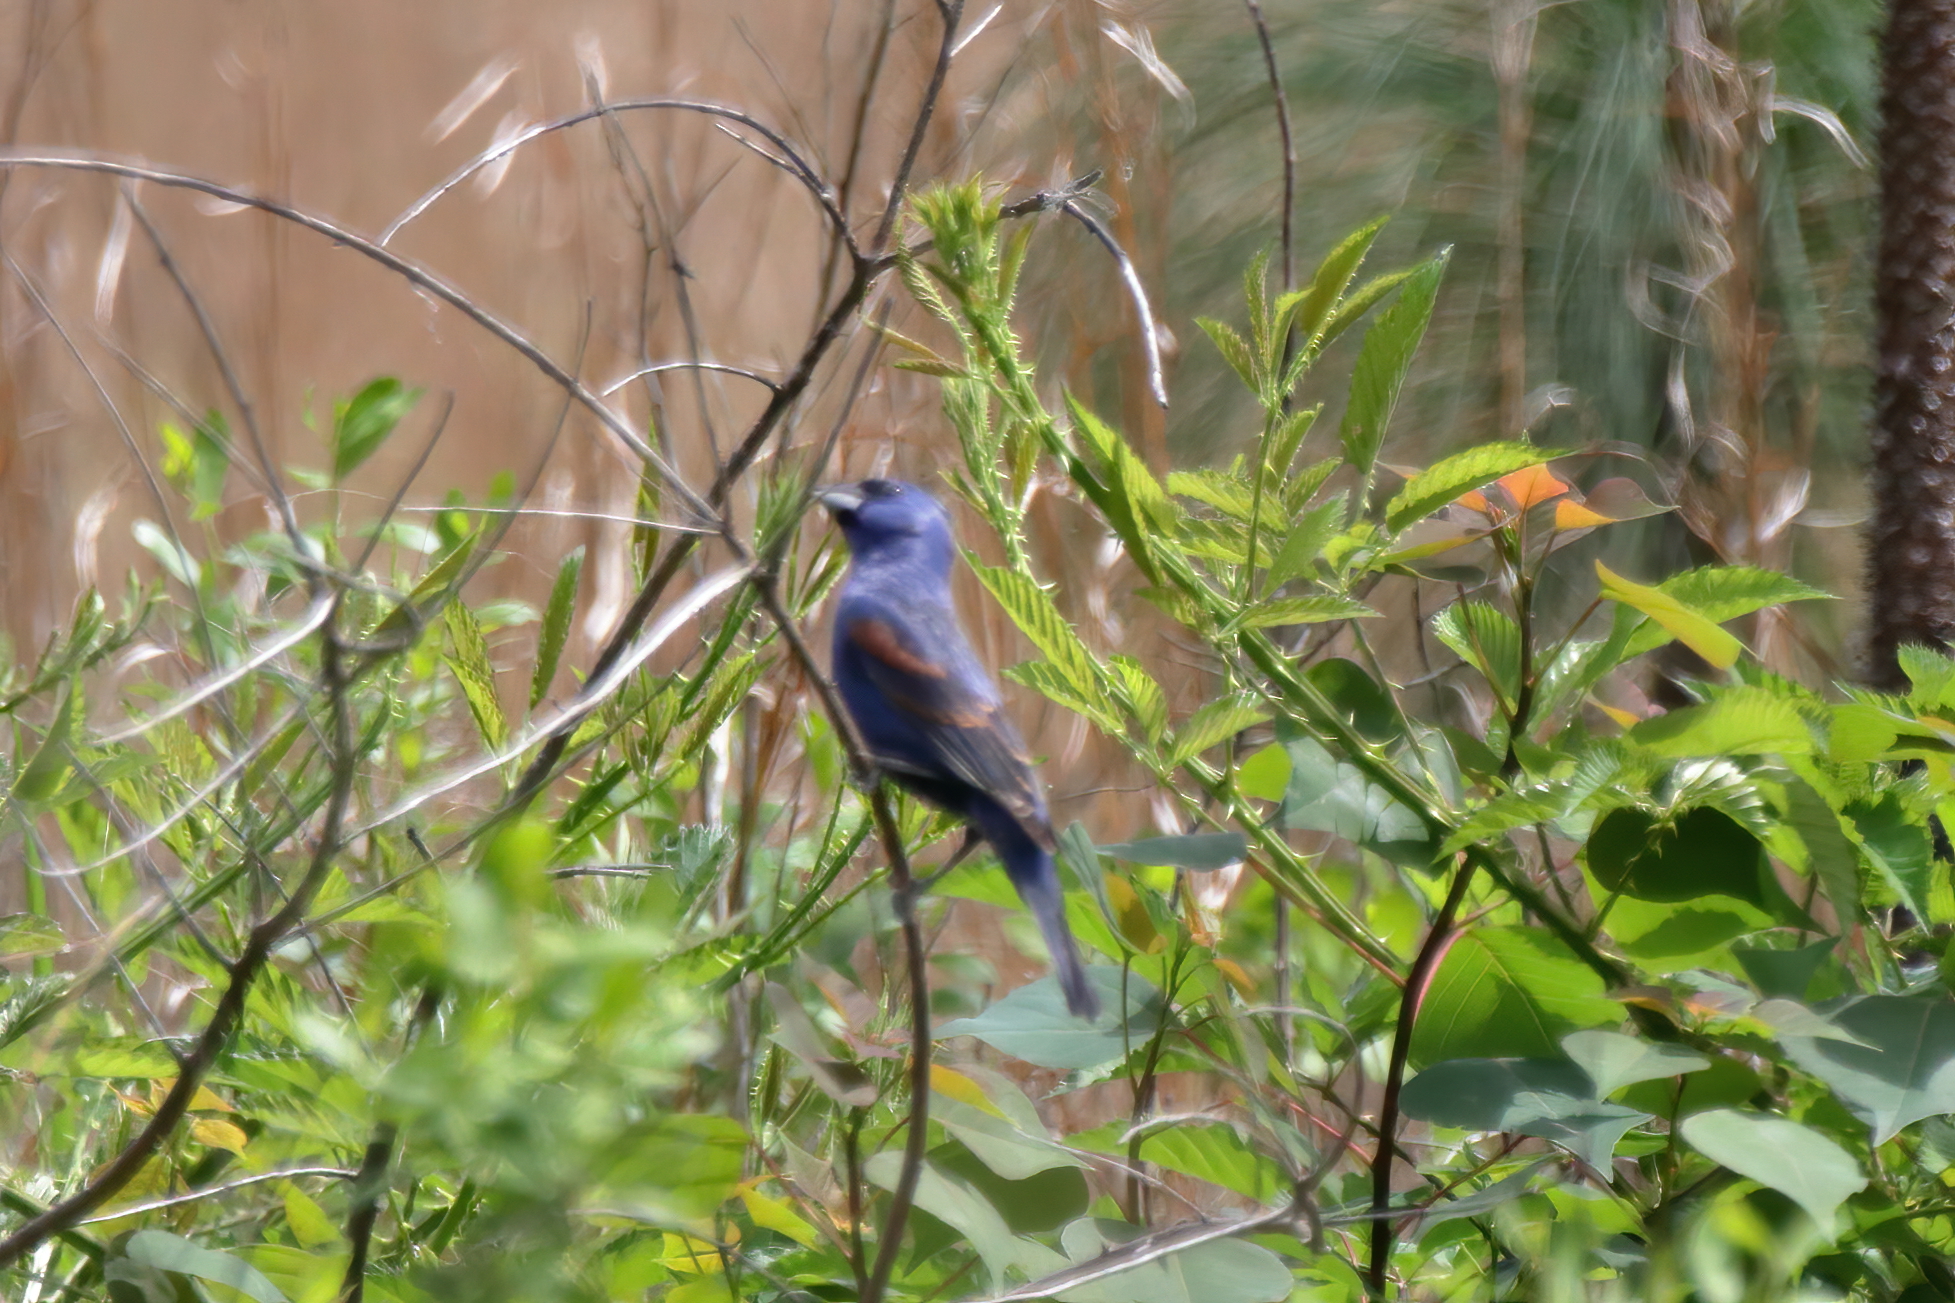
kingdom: Animalia
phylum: Chordata
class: Aves
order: Passeriformes
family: Cardinalidae
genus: Passerina
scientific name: Passerina caerulea
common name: Blue grosbeak
